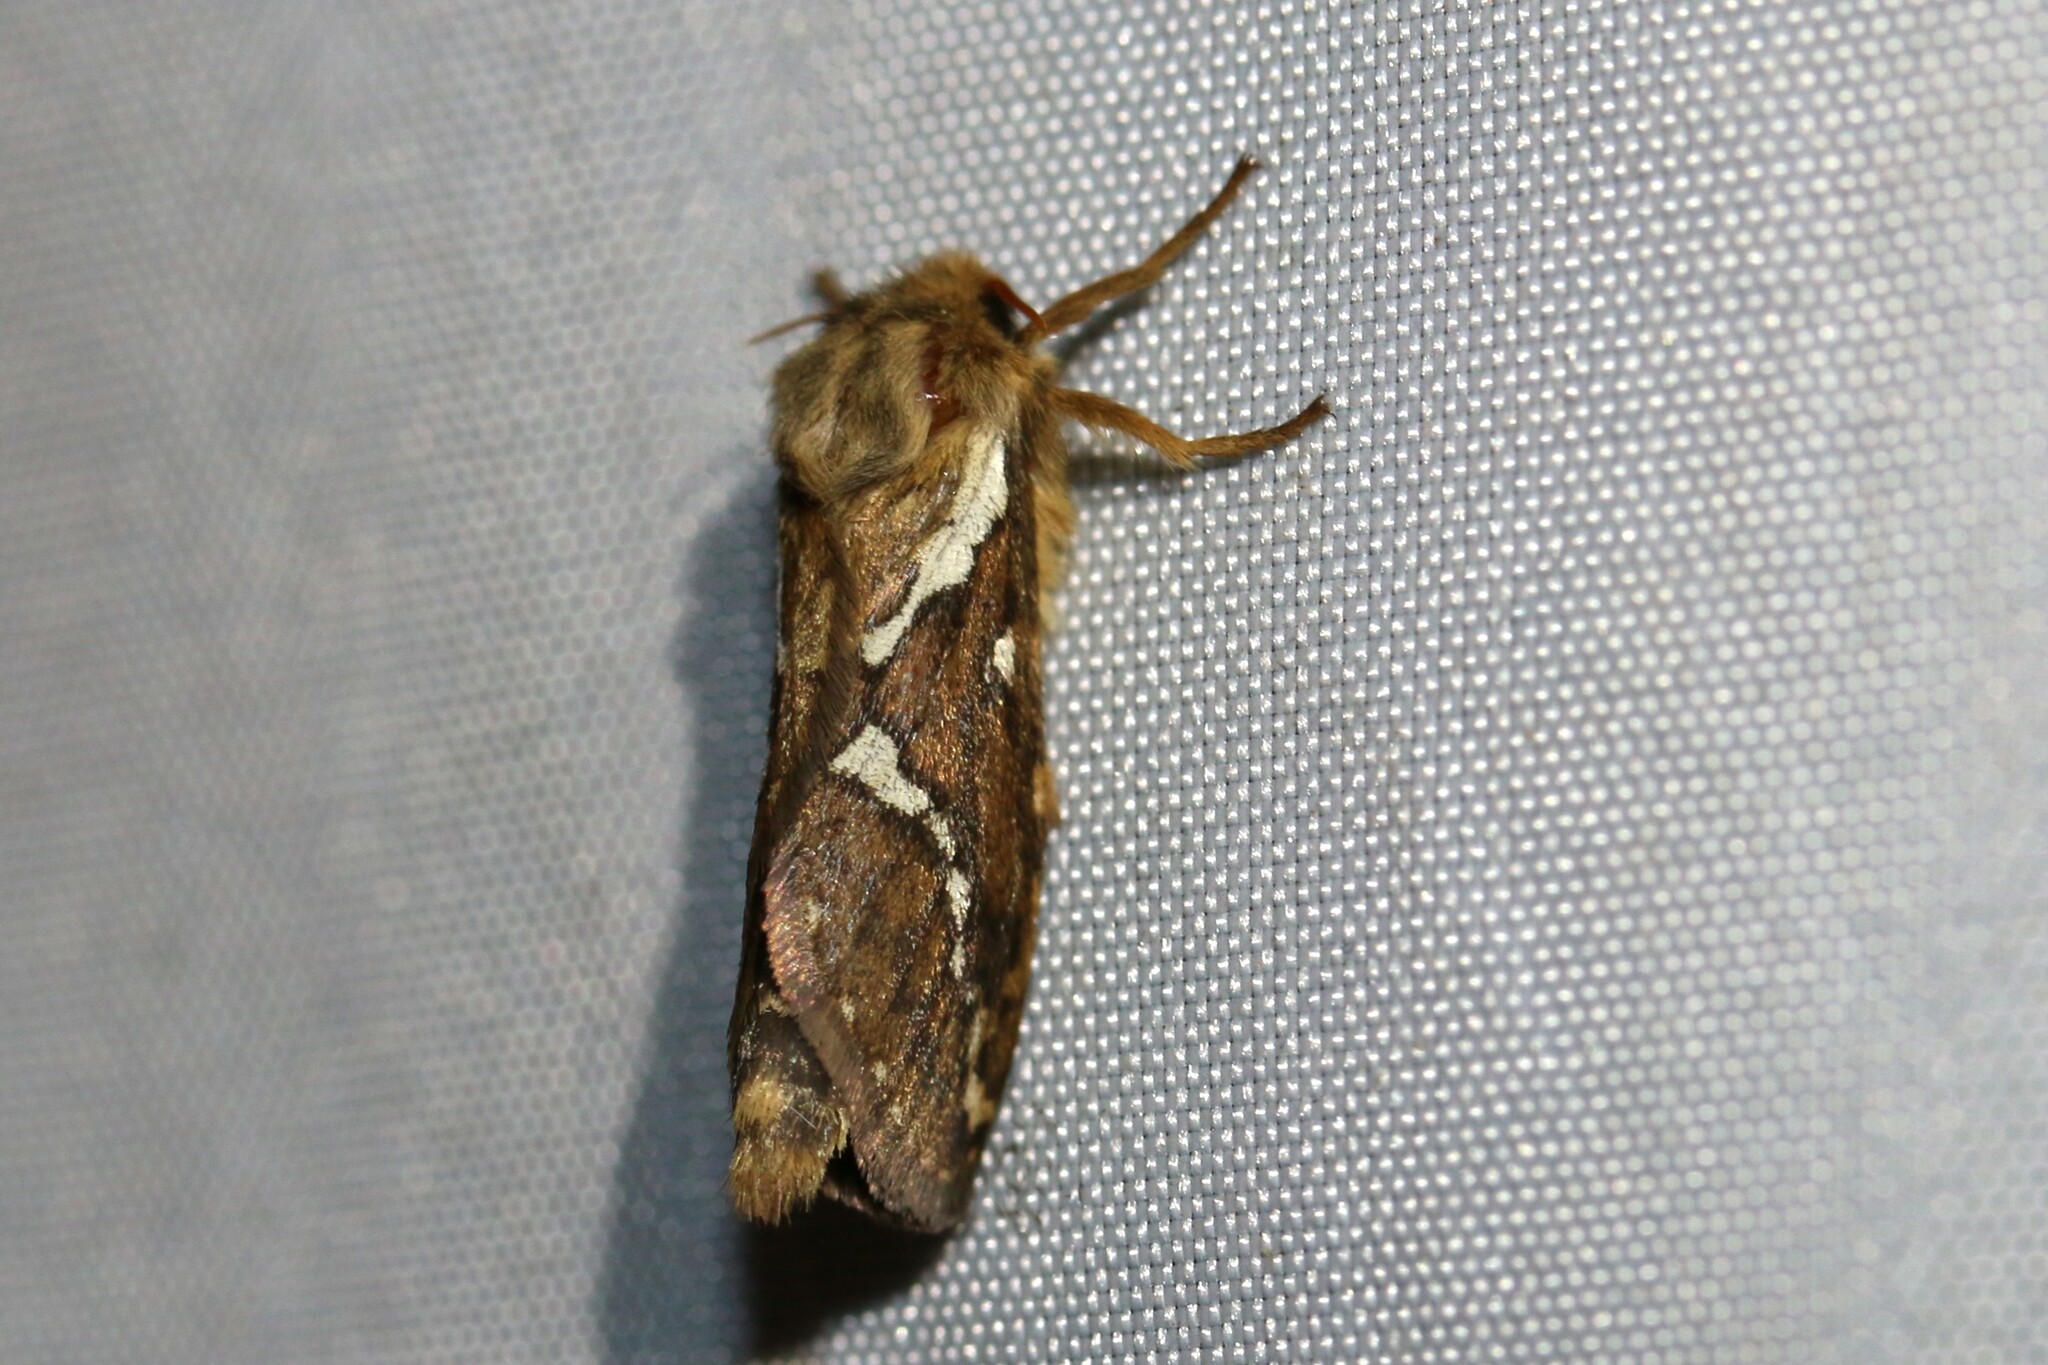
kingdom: Animalia
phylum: Arthropoda
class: Insecta
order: Lepidoptera
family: Hepialidae
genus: Korscheltellus
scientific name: Korscheltellus lupulina
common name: Common swift
